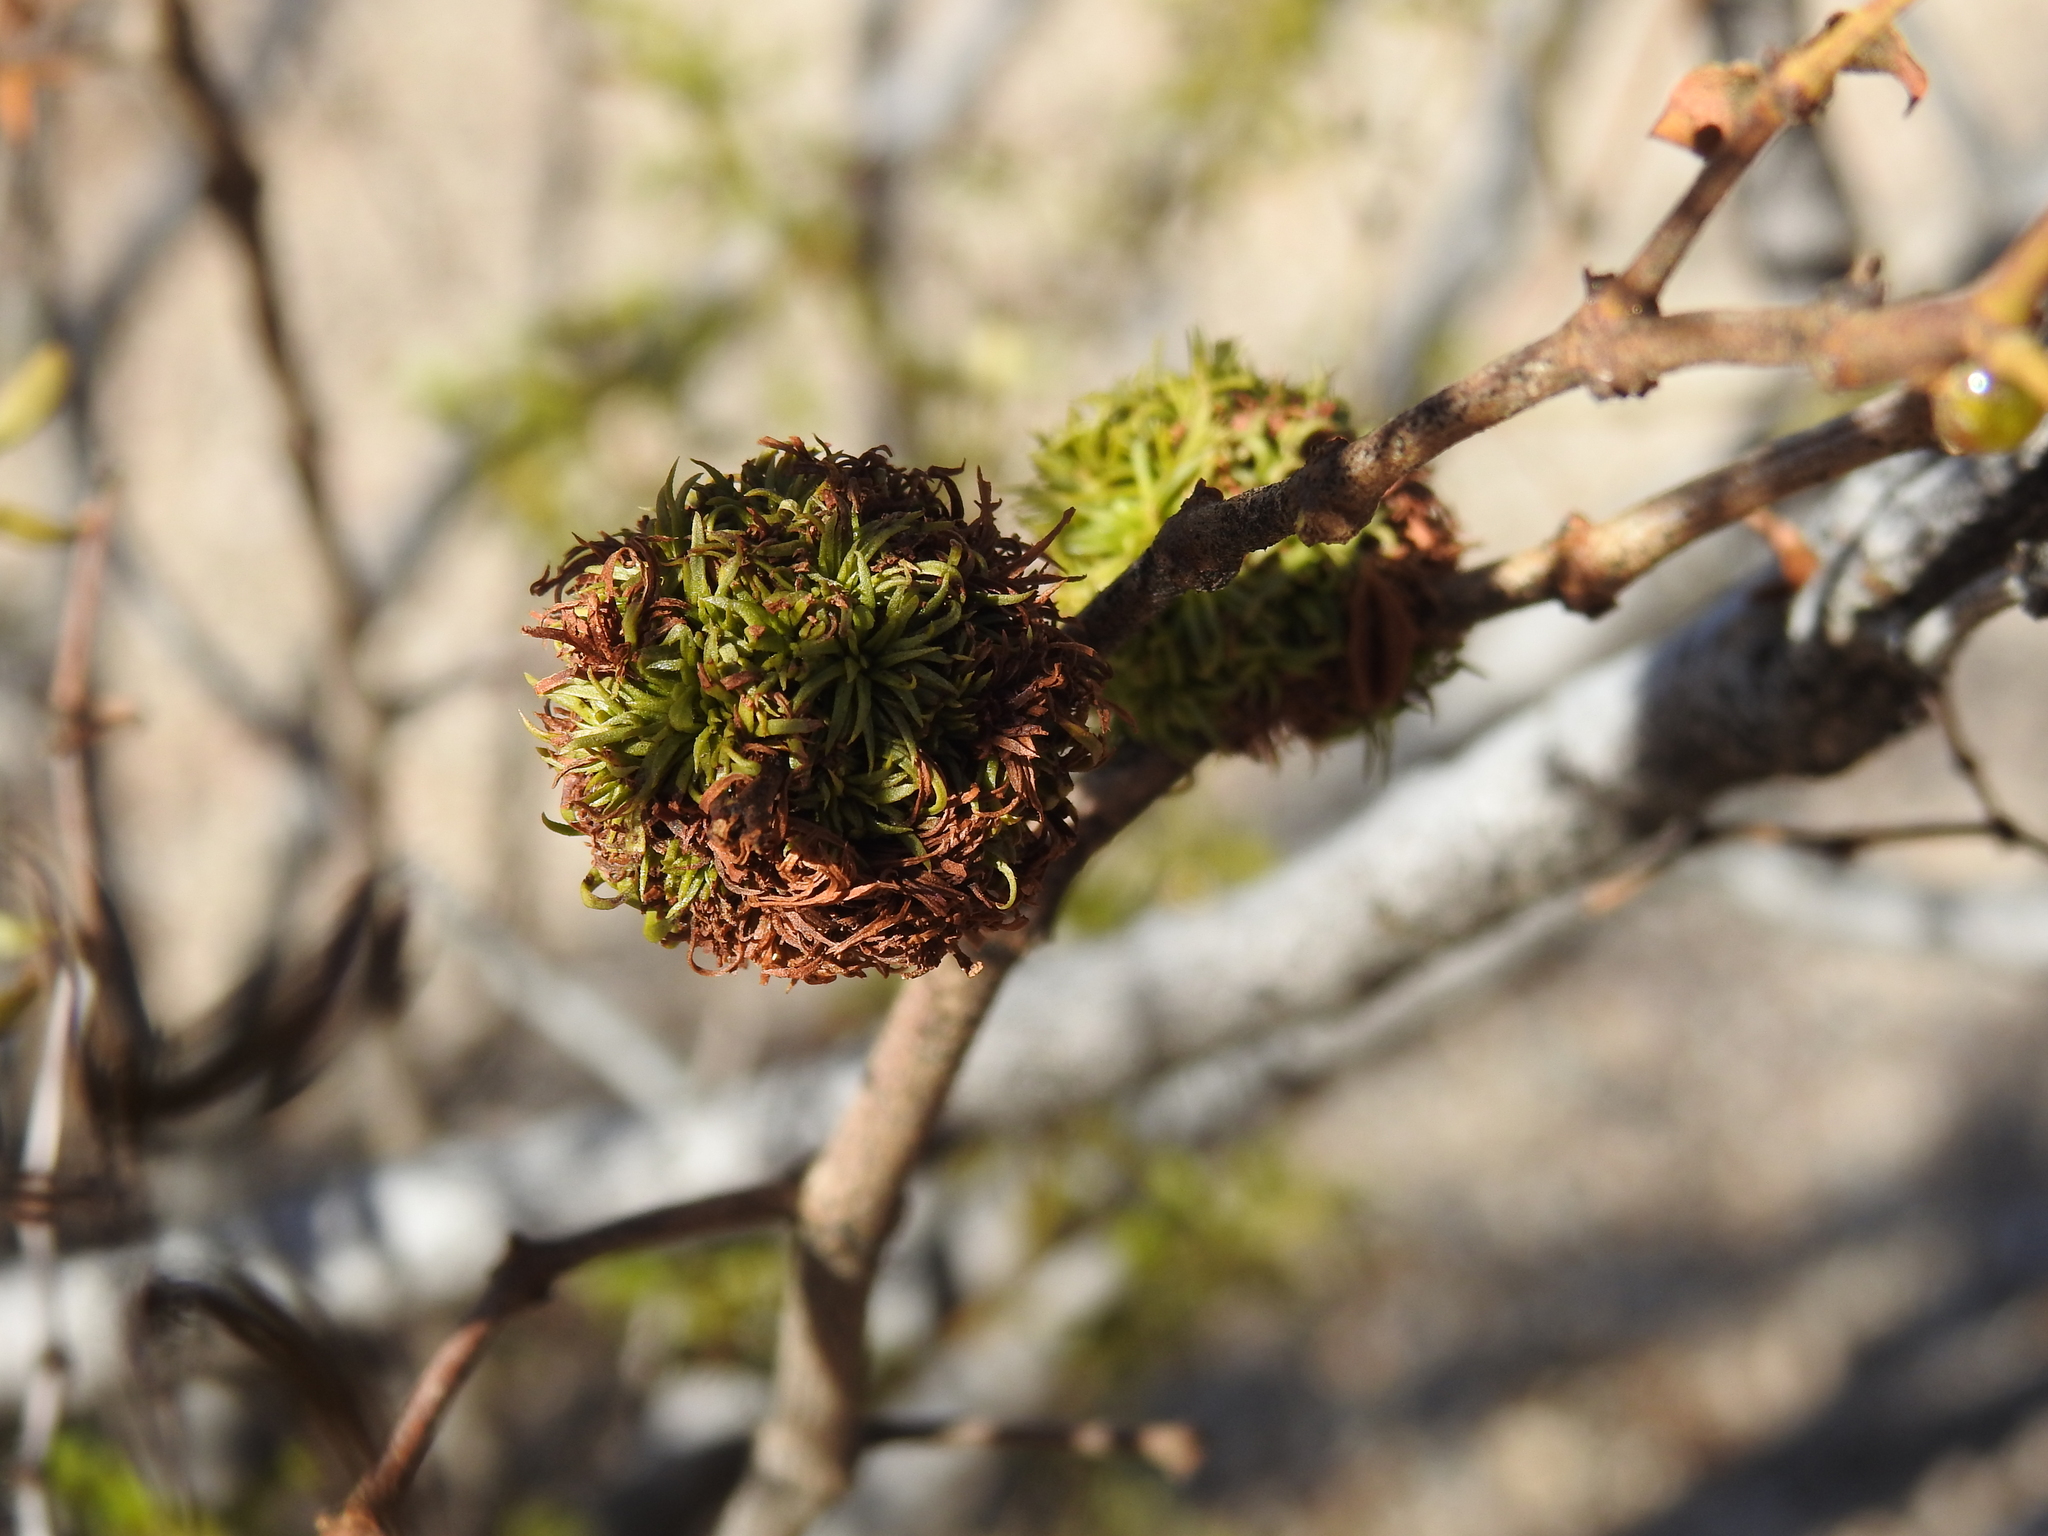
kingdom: Animalia
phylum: Arthropoda
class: Insecta
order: Diptera
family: Cecidomyiidae
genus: Asphondylia
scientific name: Asphondylia auripila
